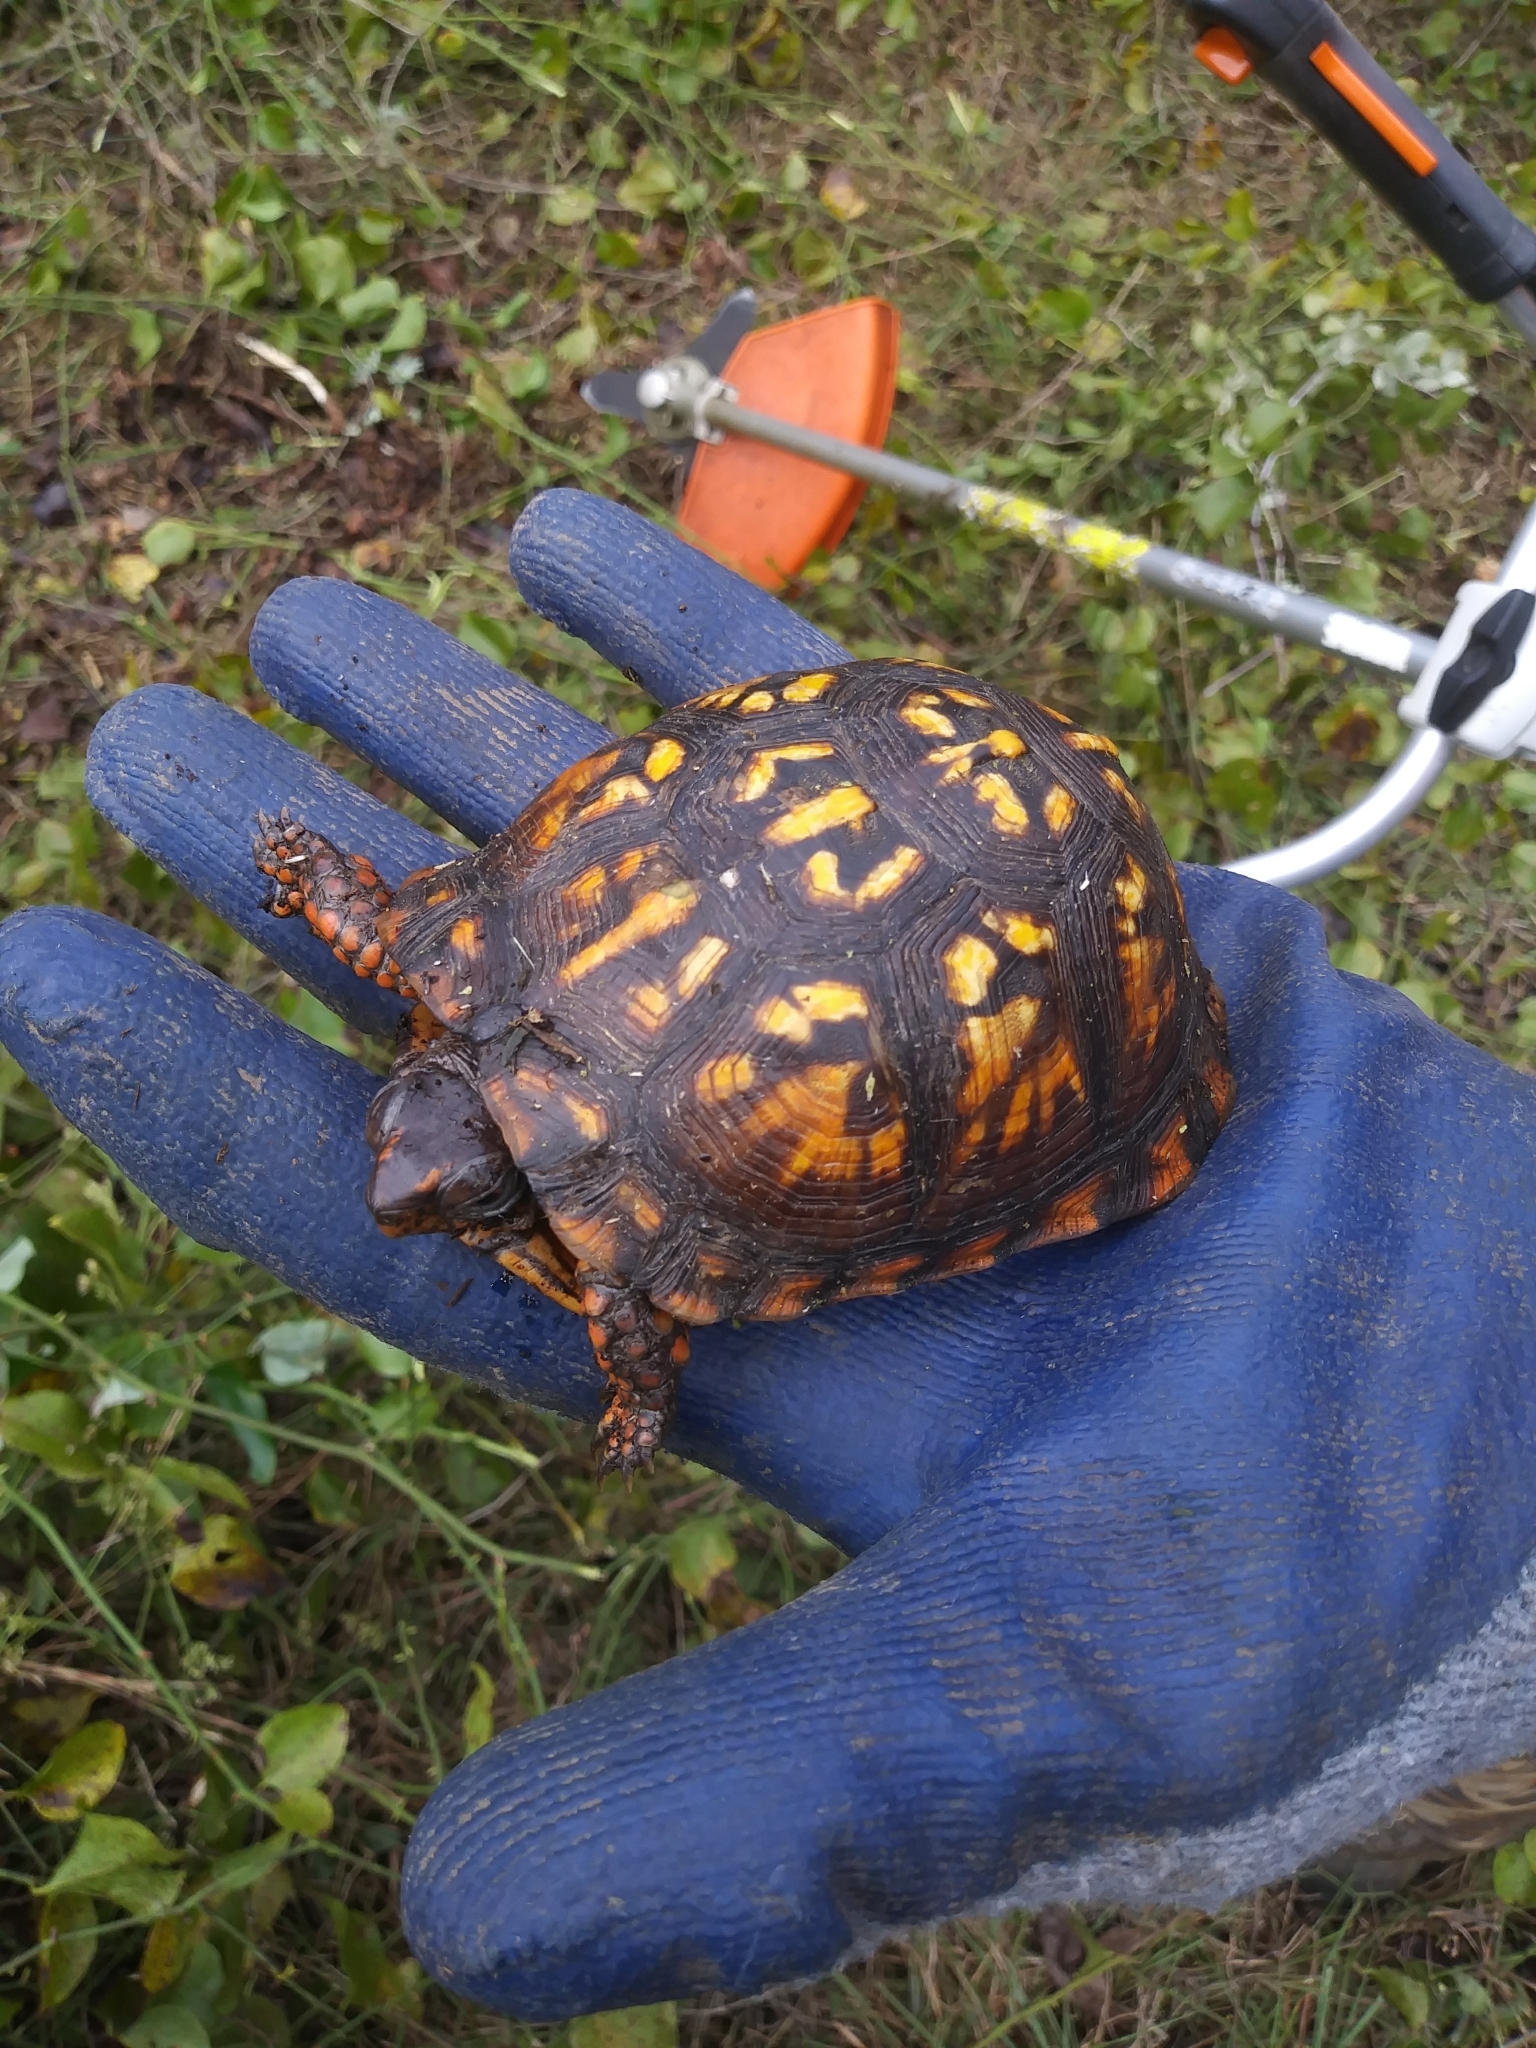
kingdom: Animalia
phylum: Chordata
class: Testudines
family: Emydidae
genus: Terrapene
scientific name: Terrapene carolina
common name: Common box turtle
